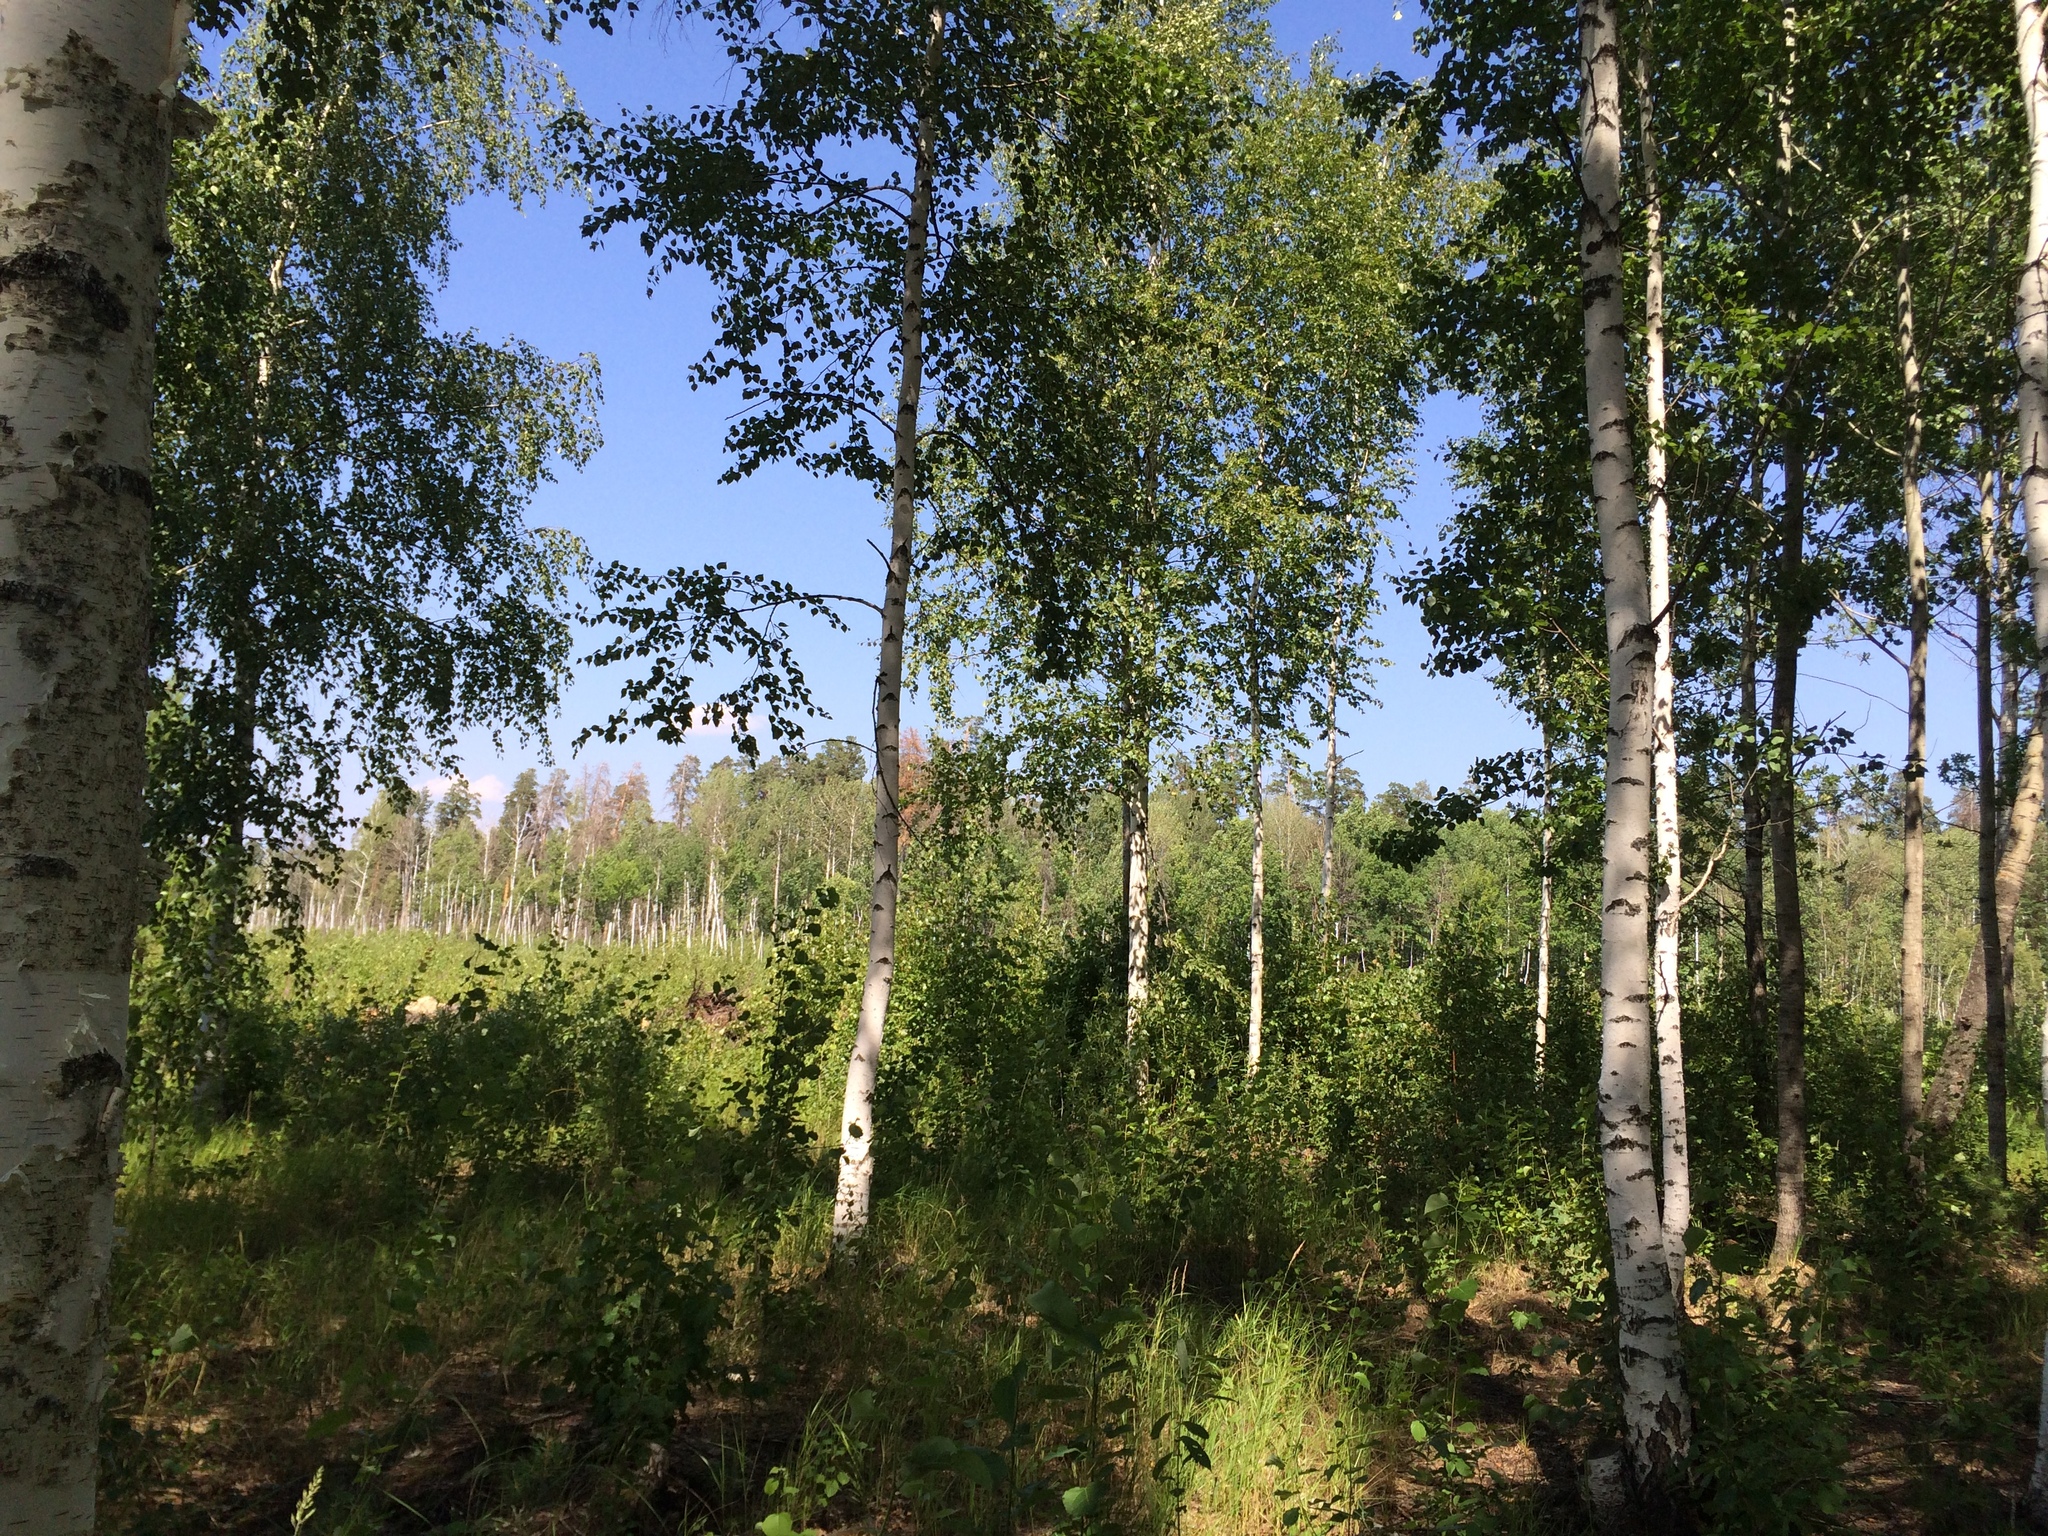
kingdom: Plantae
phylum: Tracheophyta
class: Magnoliopsida
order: Fagales
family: Betulaceae
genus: Betula
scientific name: Betula pendula
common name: Silver birch
